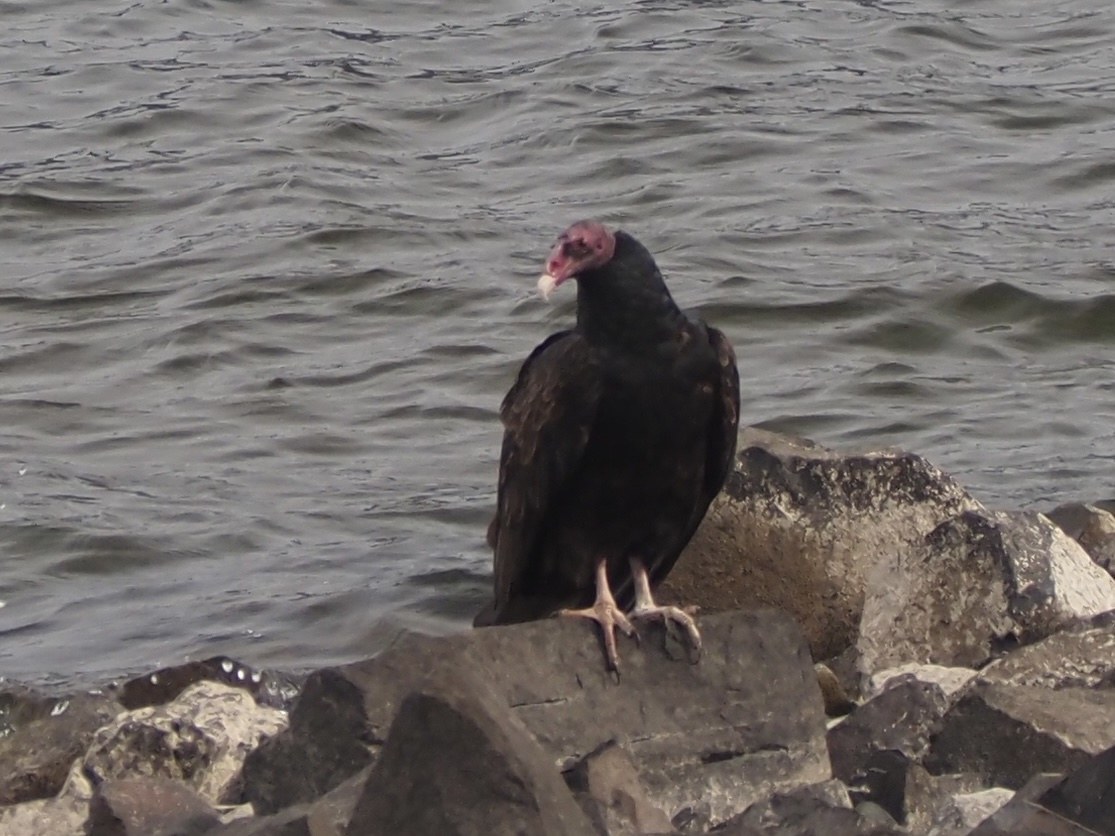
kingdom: Animalia
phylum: Chordata
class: Aves
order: Accipitriformes
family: Cathartidae
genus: Cathartes
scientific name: Cathartes aura
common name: Turkey vulture
